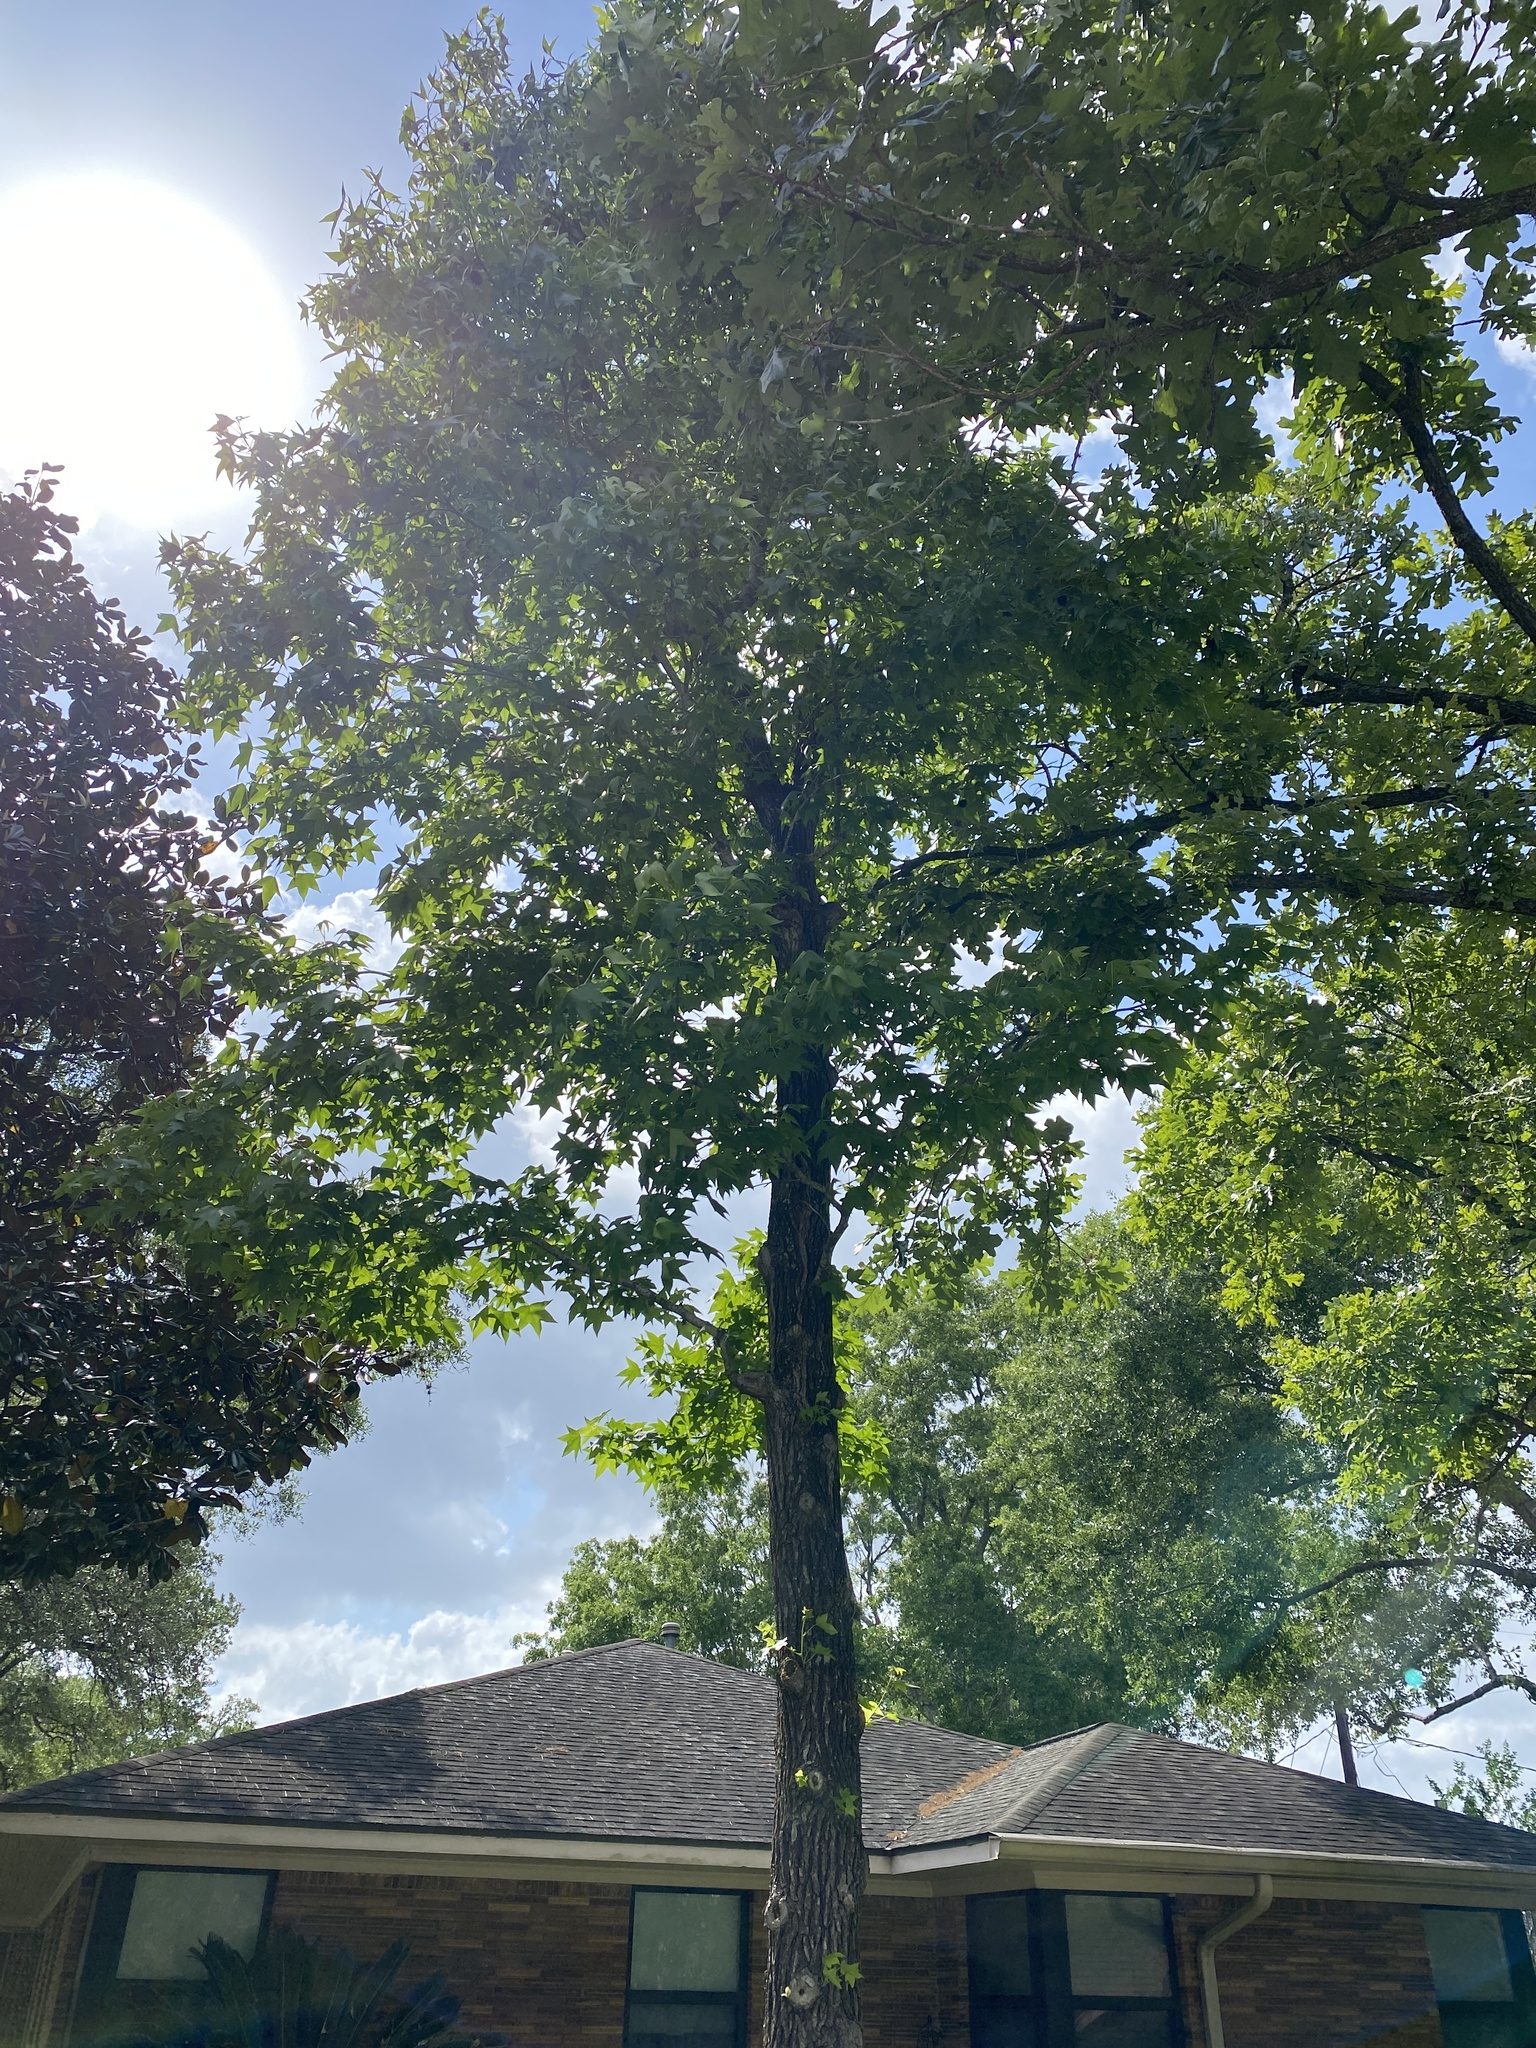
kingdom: Plantae
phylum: Tracheophyta
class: Magnoliopsida
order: Saxifragales
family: Altingiaceae
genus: Liquidambar
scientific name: Liquidambar styraciflua
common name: Sweet gum
